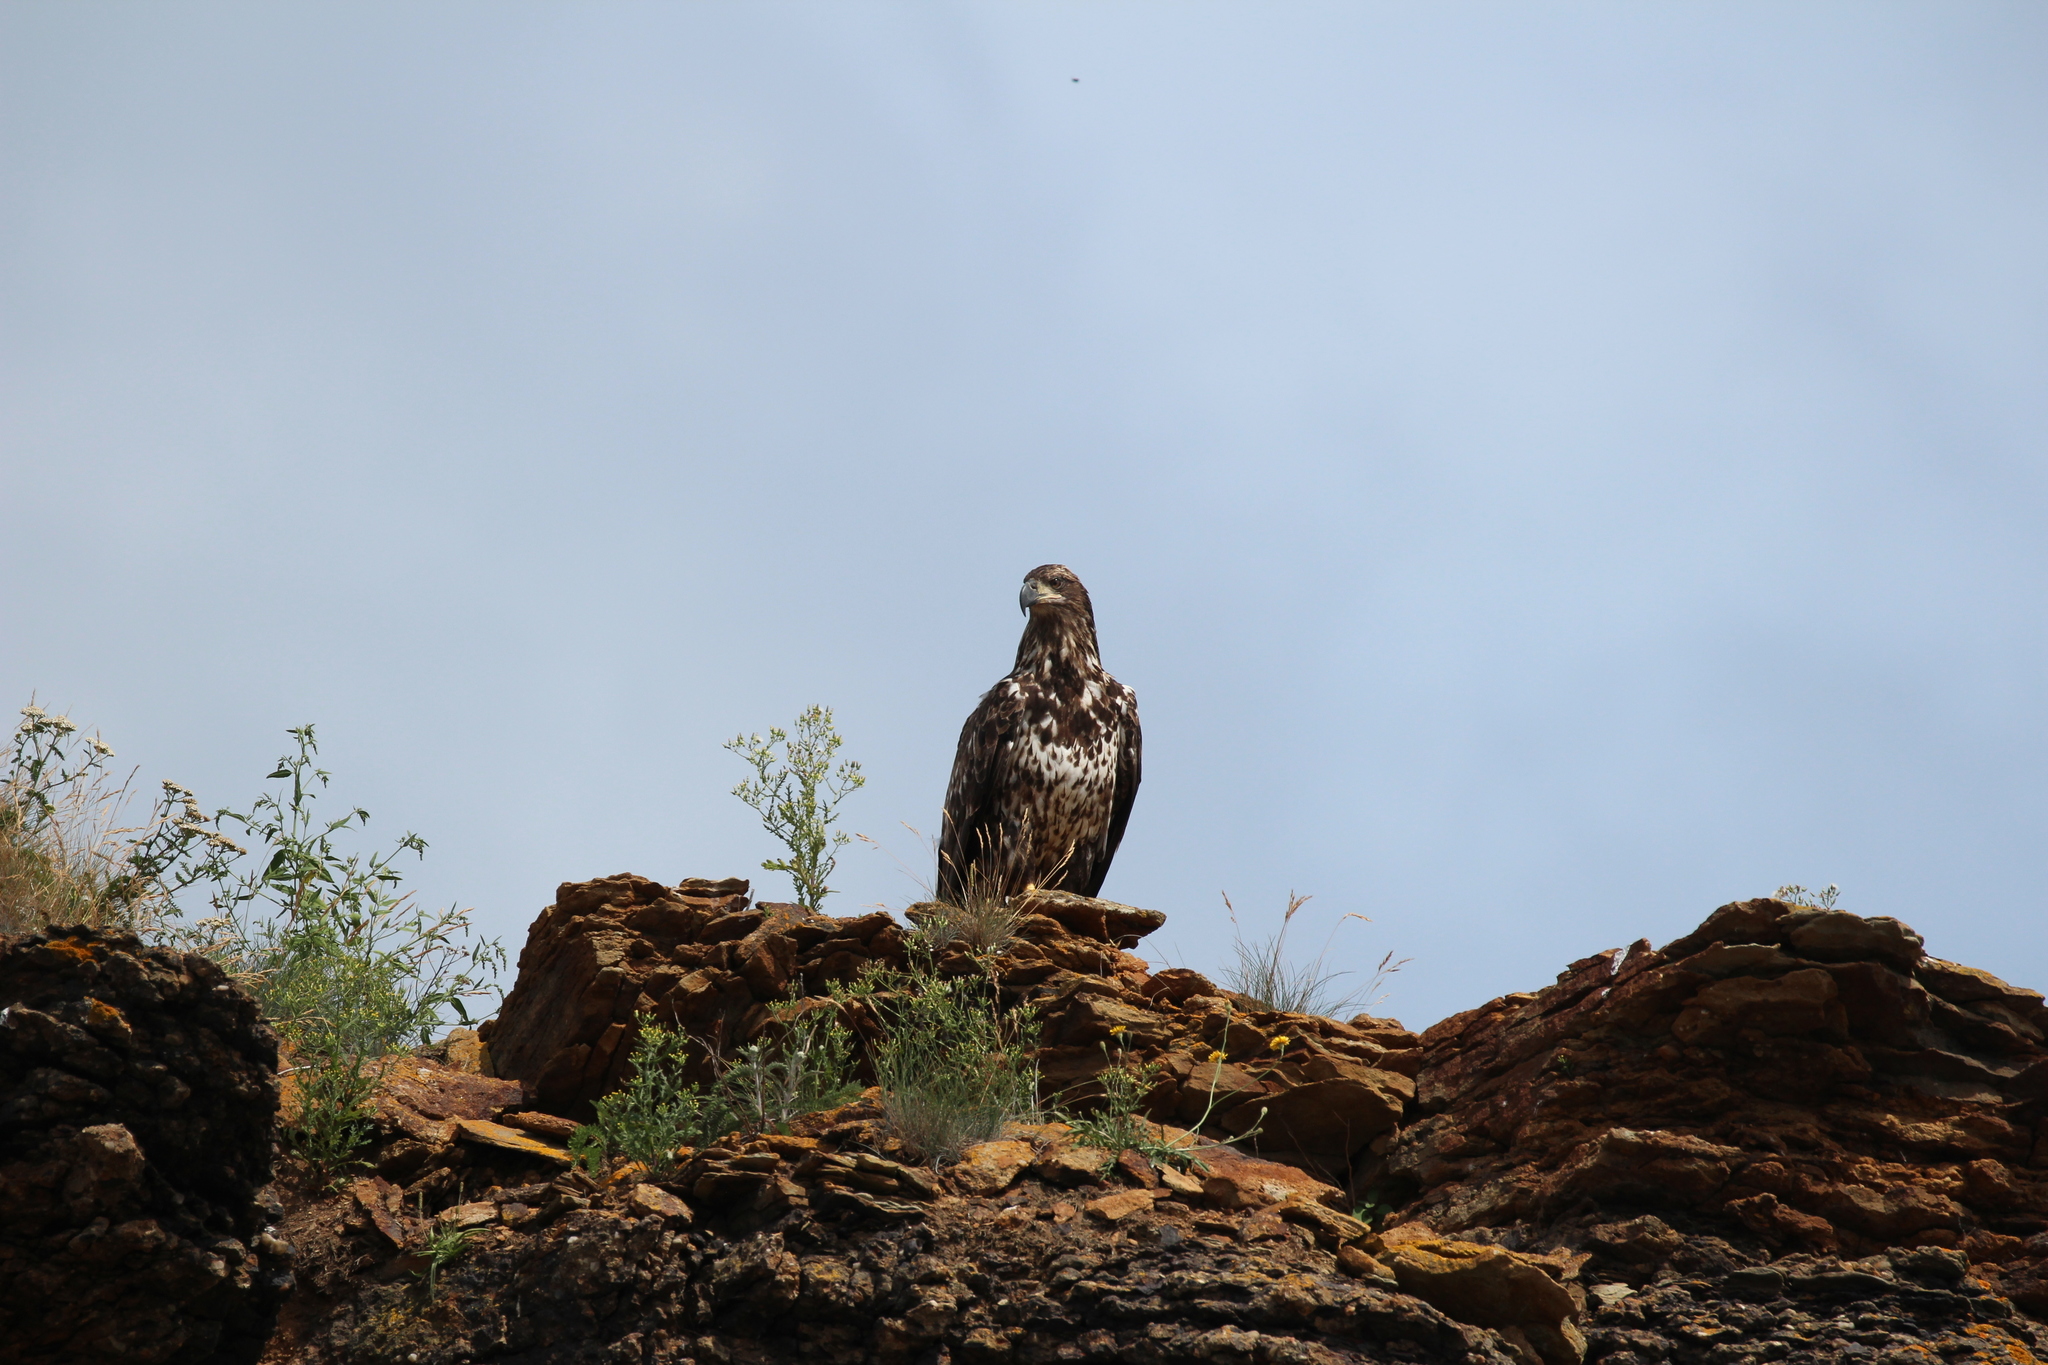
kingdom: Animalia
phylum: Chordata
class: Aves
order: Accipitriformes
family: Accipitridae
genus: Haliaeetus
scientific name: Haliaeetus leucocephalus
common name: Bald eagle
